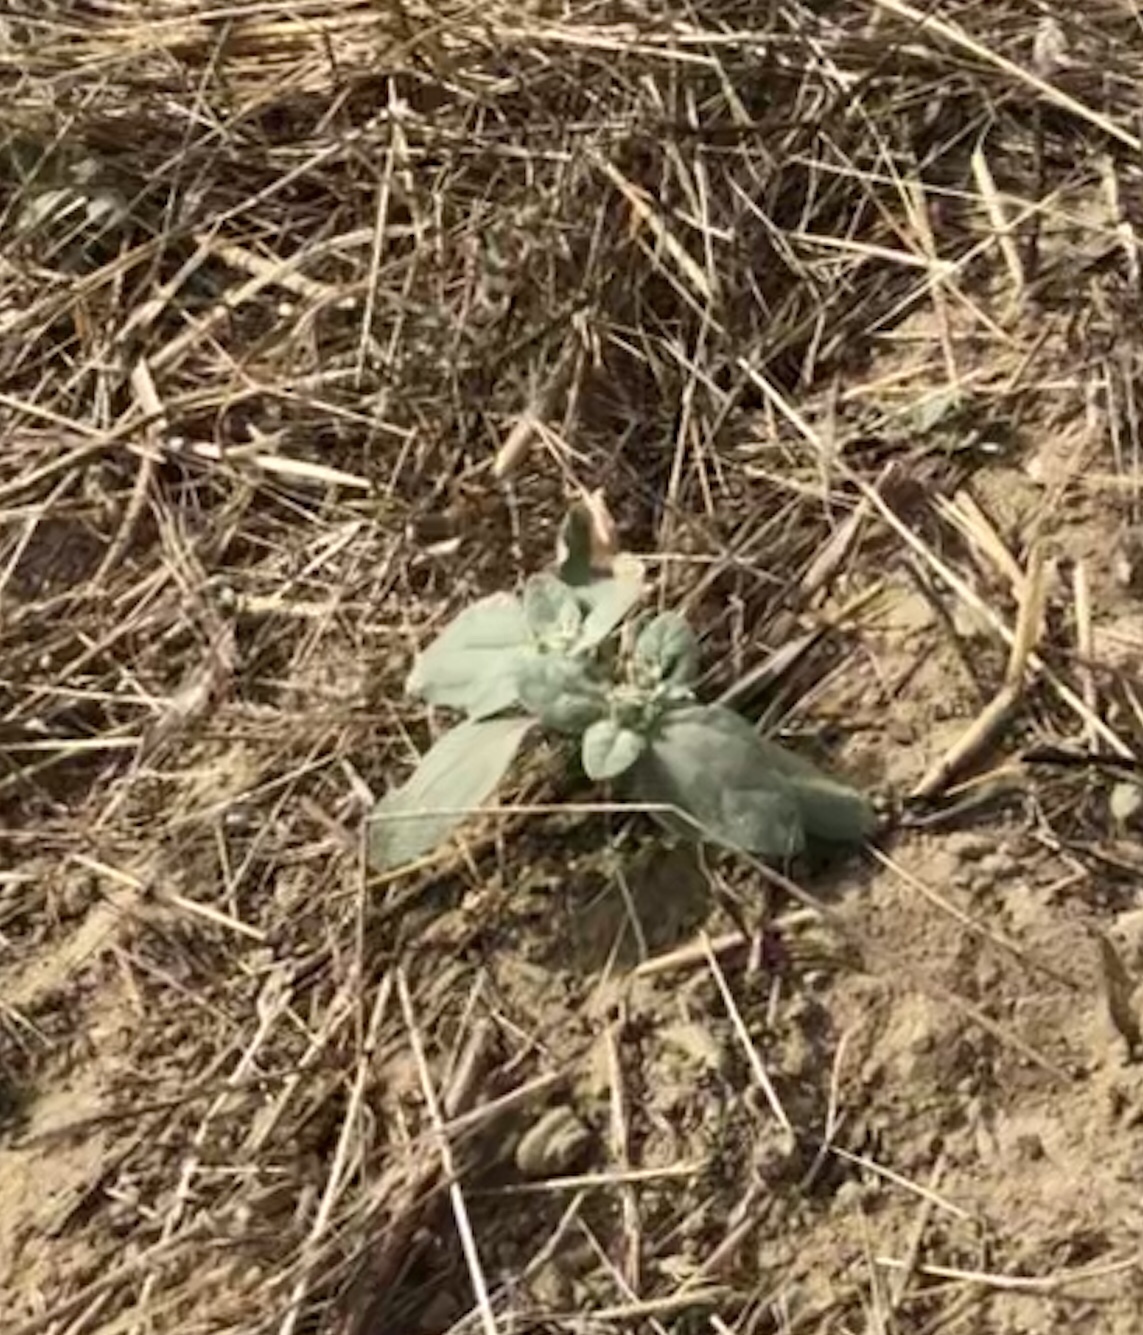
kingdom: Plantae
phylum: Tracheophyta
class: Magnoliopsida
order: Malpighiales
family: Euphorbiaceae
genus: Croton
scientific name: Croton setiger
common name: Dove weed
